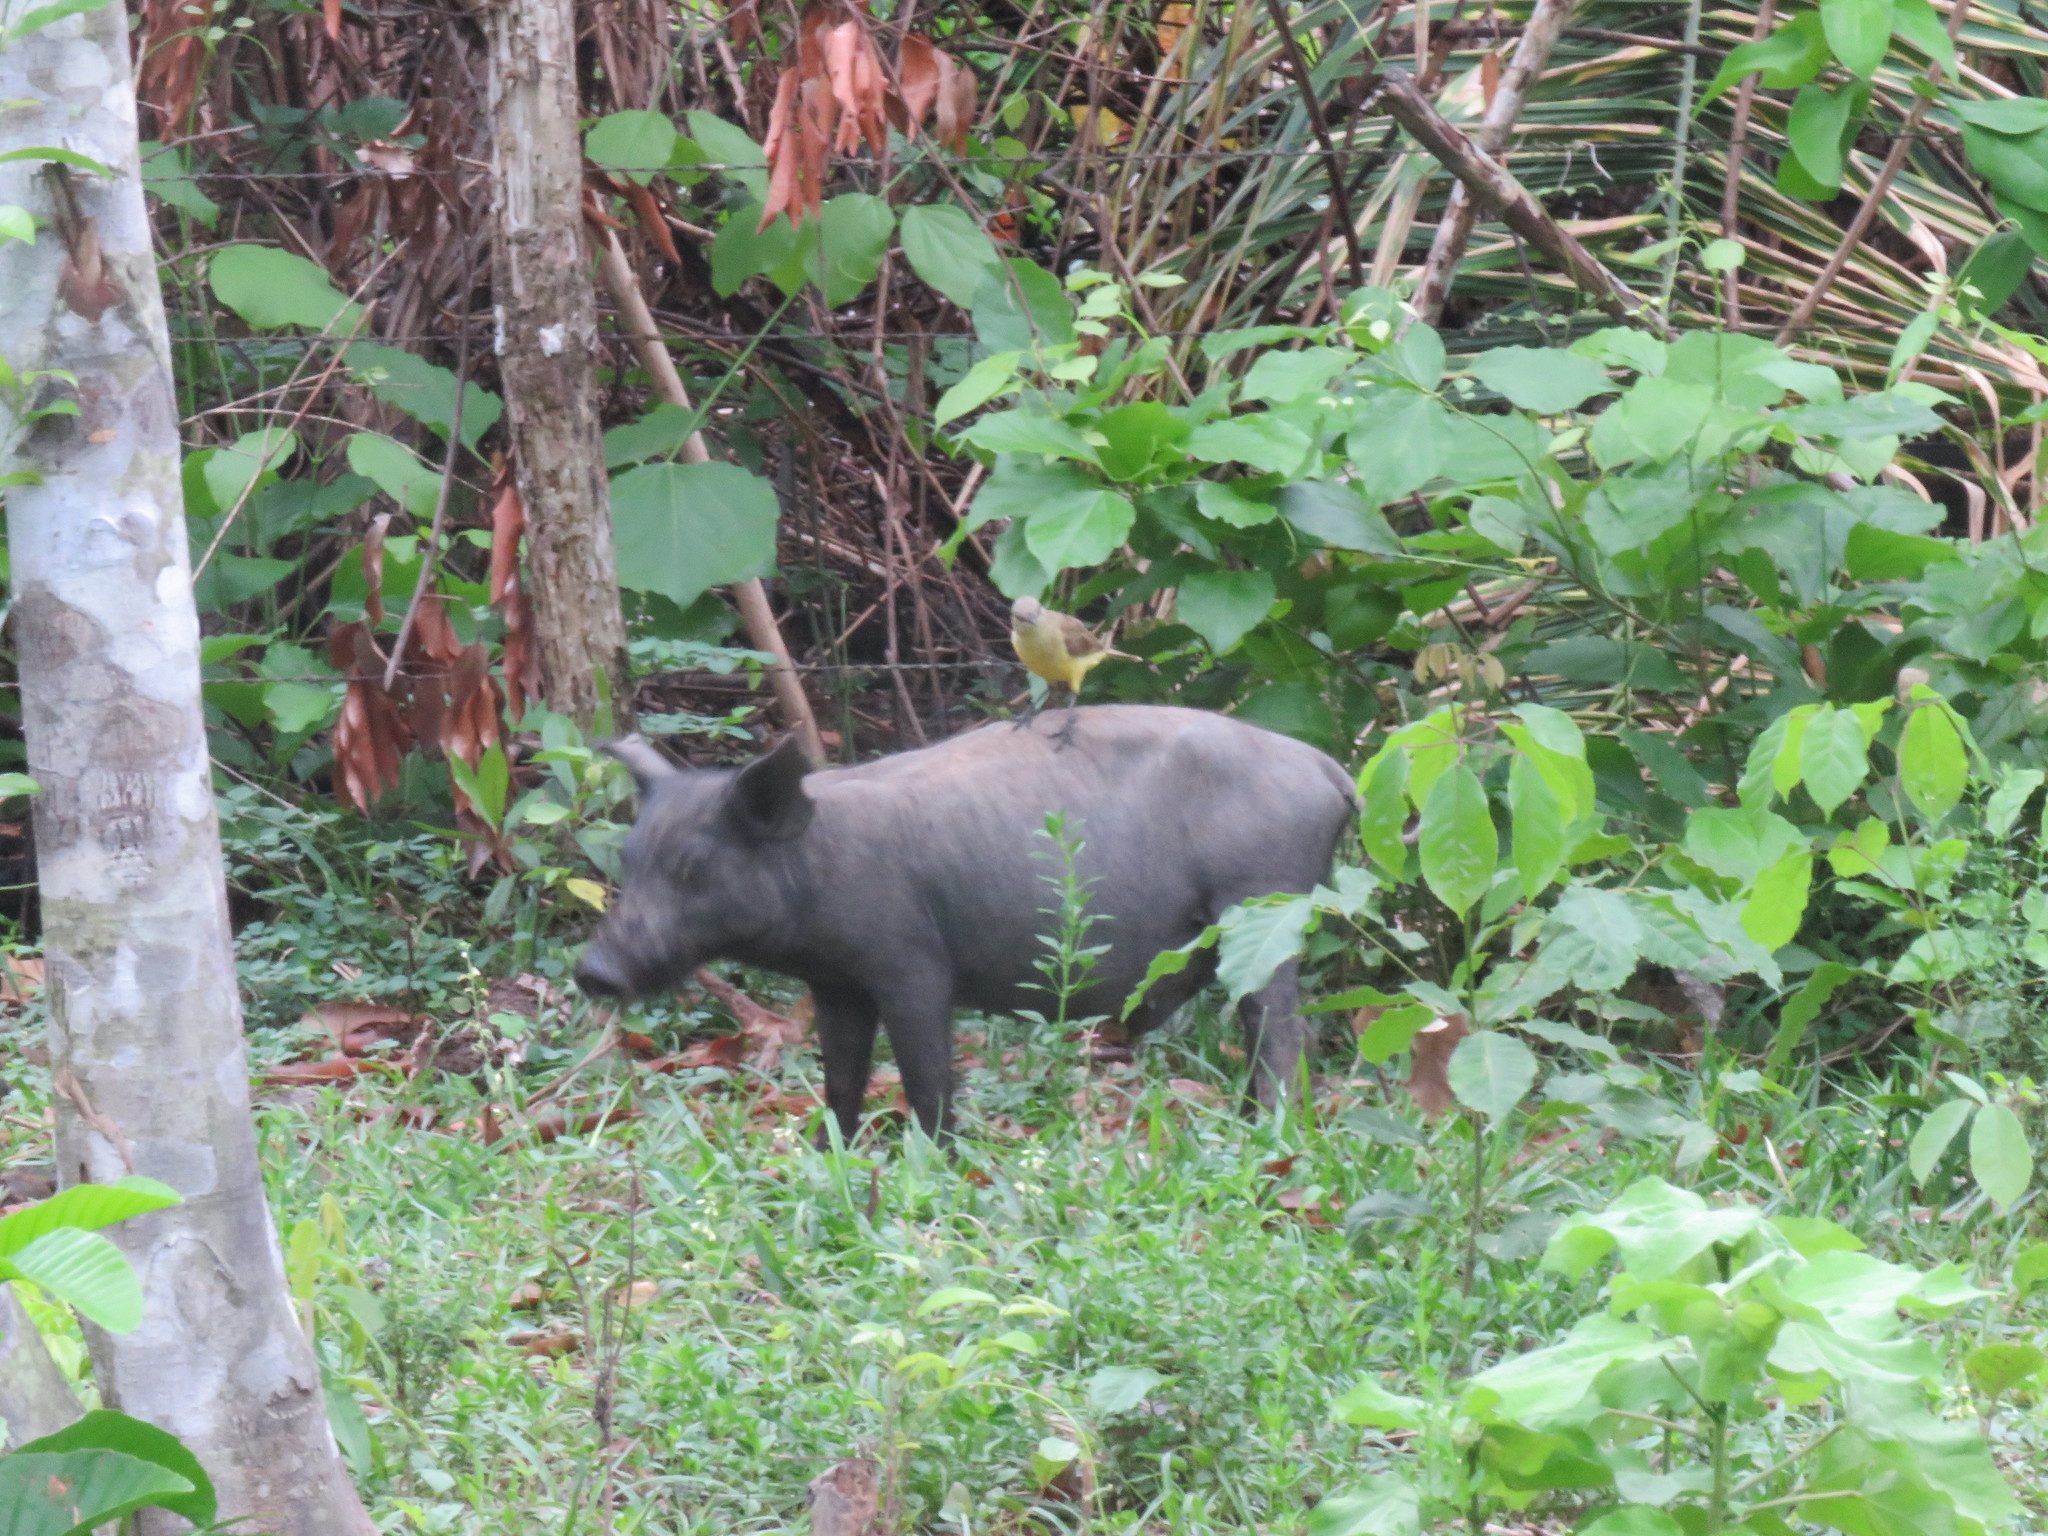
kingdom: Animalia
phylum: Chordata
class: Aves
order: Passeriformes
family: Tyrannidae
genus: Machetornis
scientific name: Machetornis rixosa
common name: Cattle tyrant
